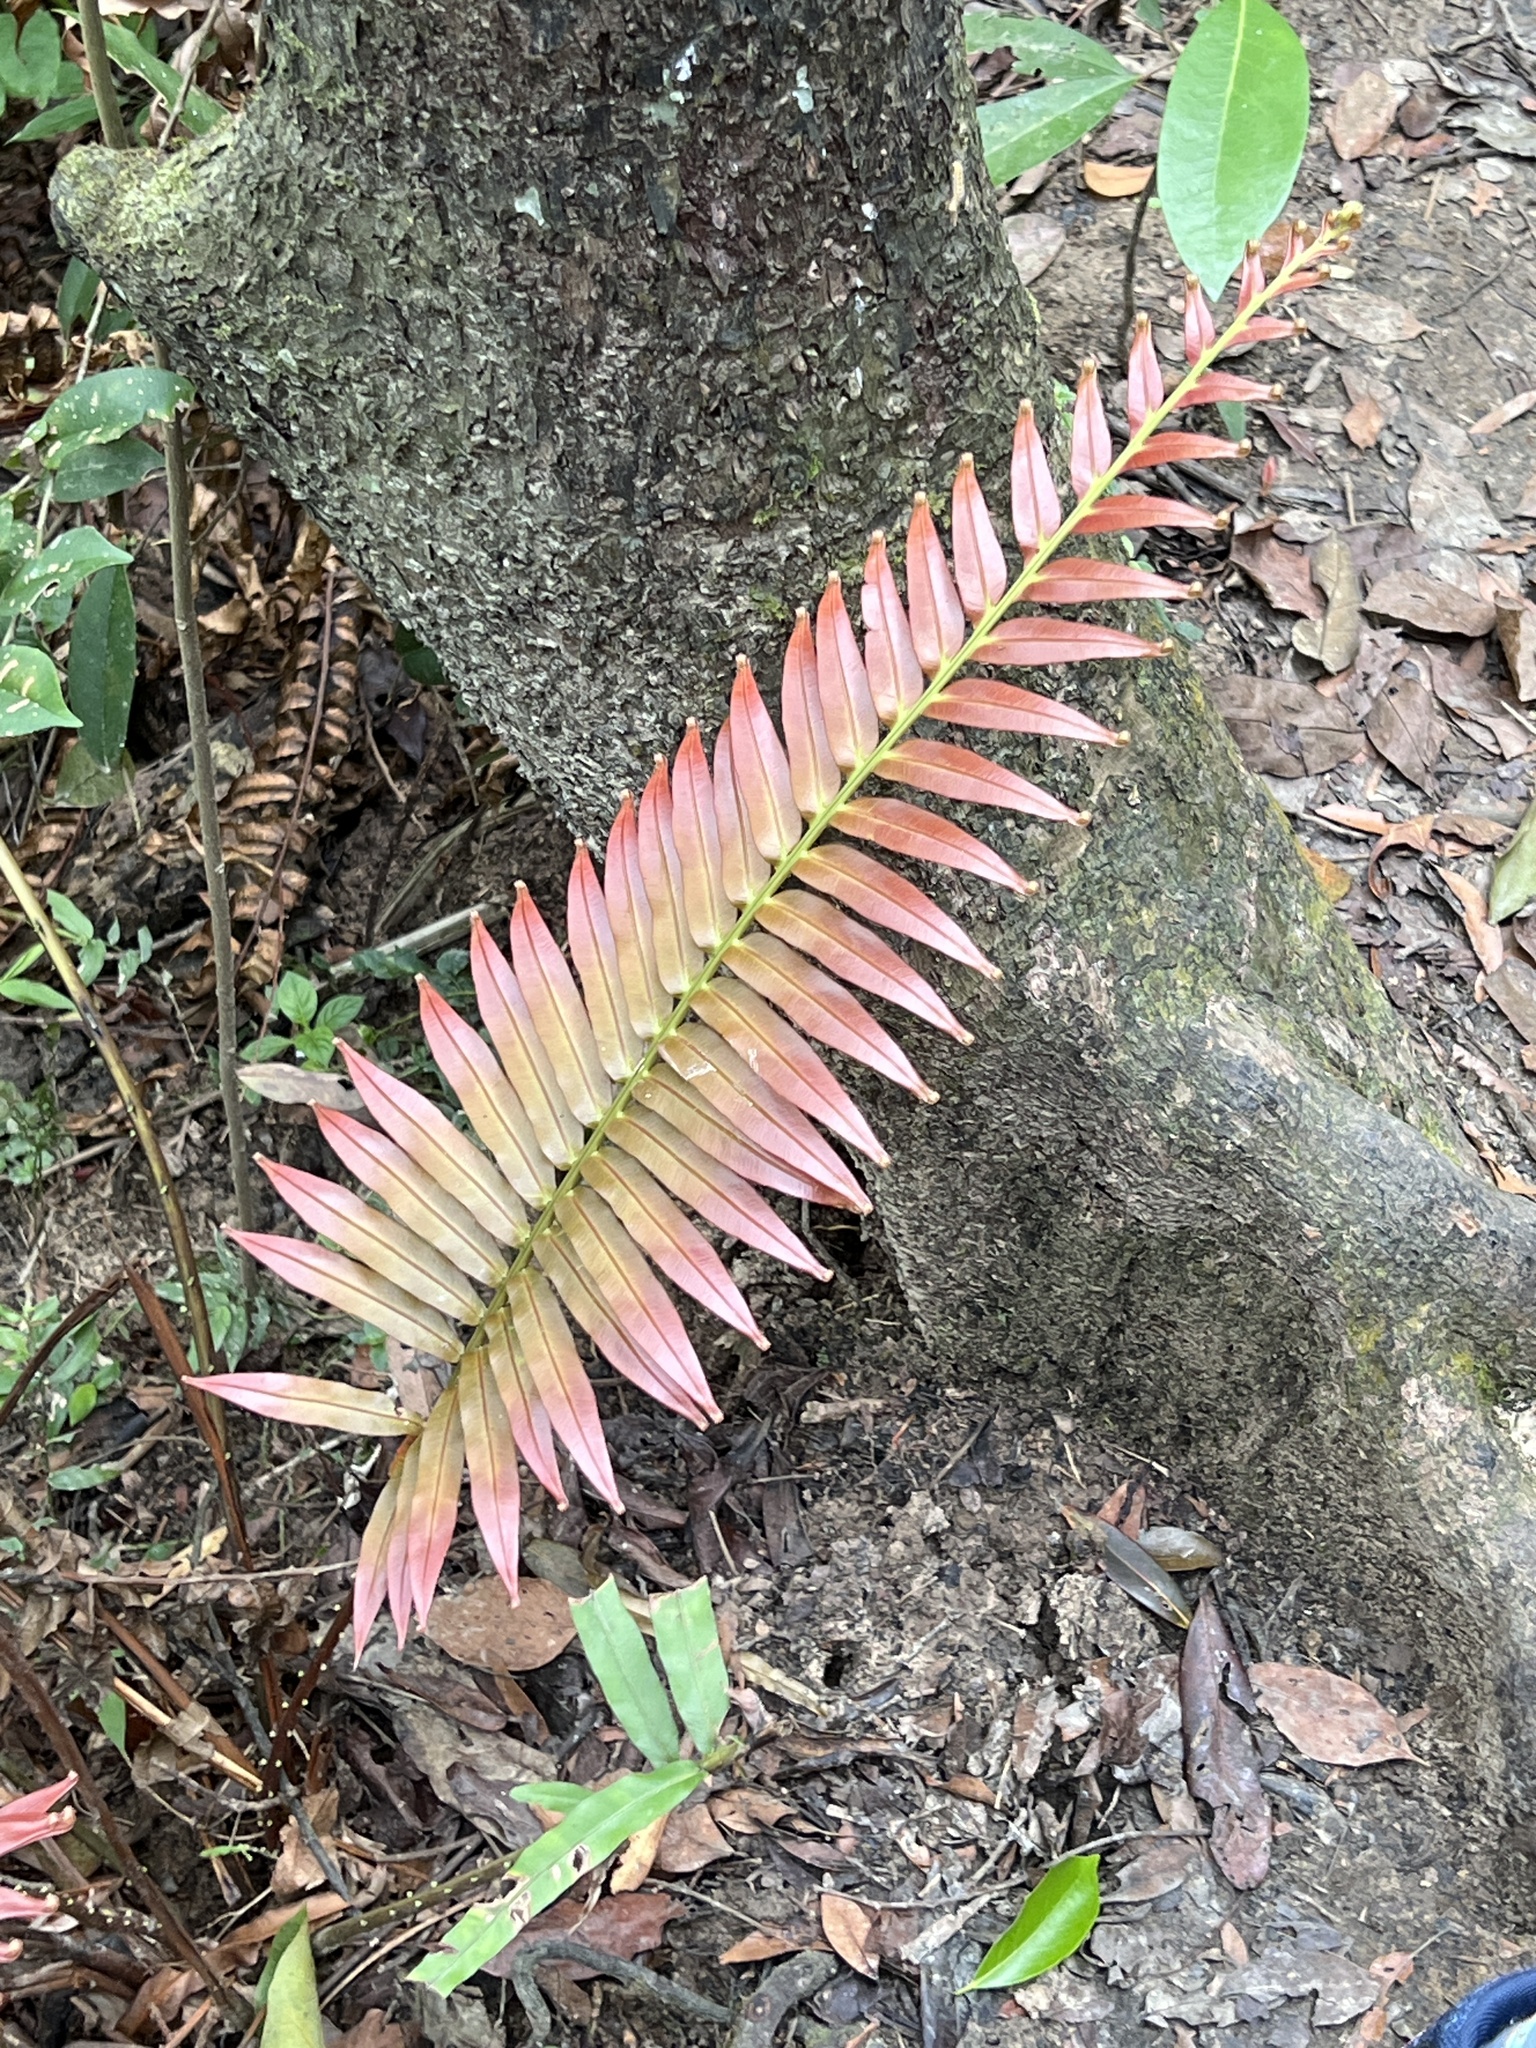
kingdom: Plantae
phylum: Tracheophyta
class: Polypodiopsida
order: Polypodiales
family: Blechnaceae
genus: Blechnopsis
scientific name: Blechnopsis orientalis
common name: Oriental blechnum
